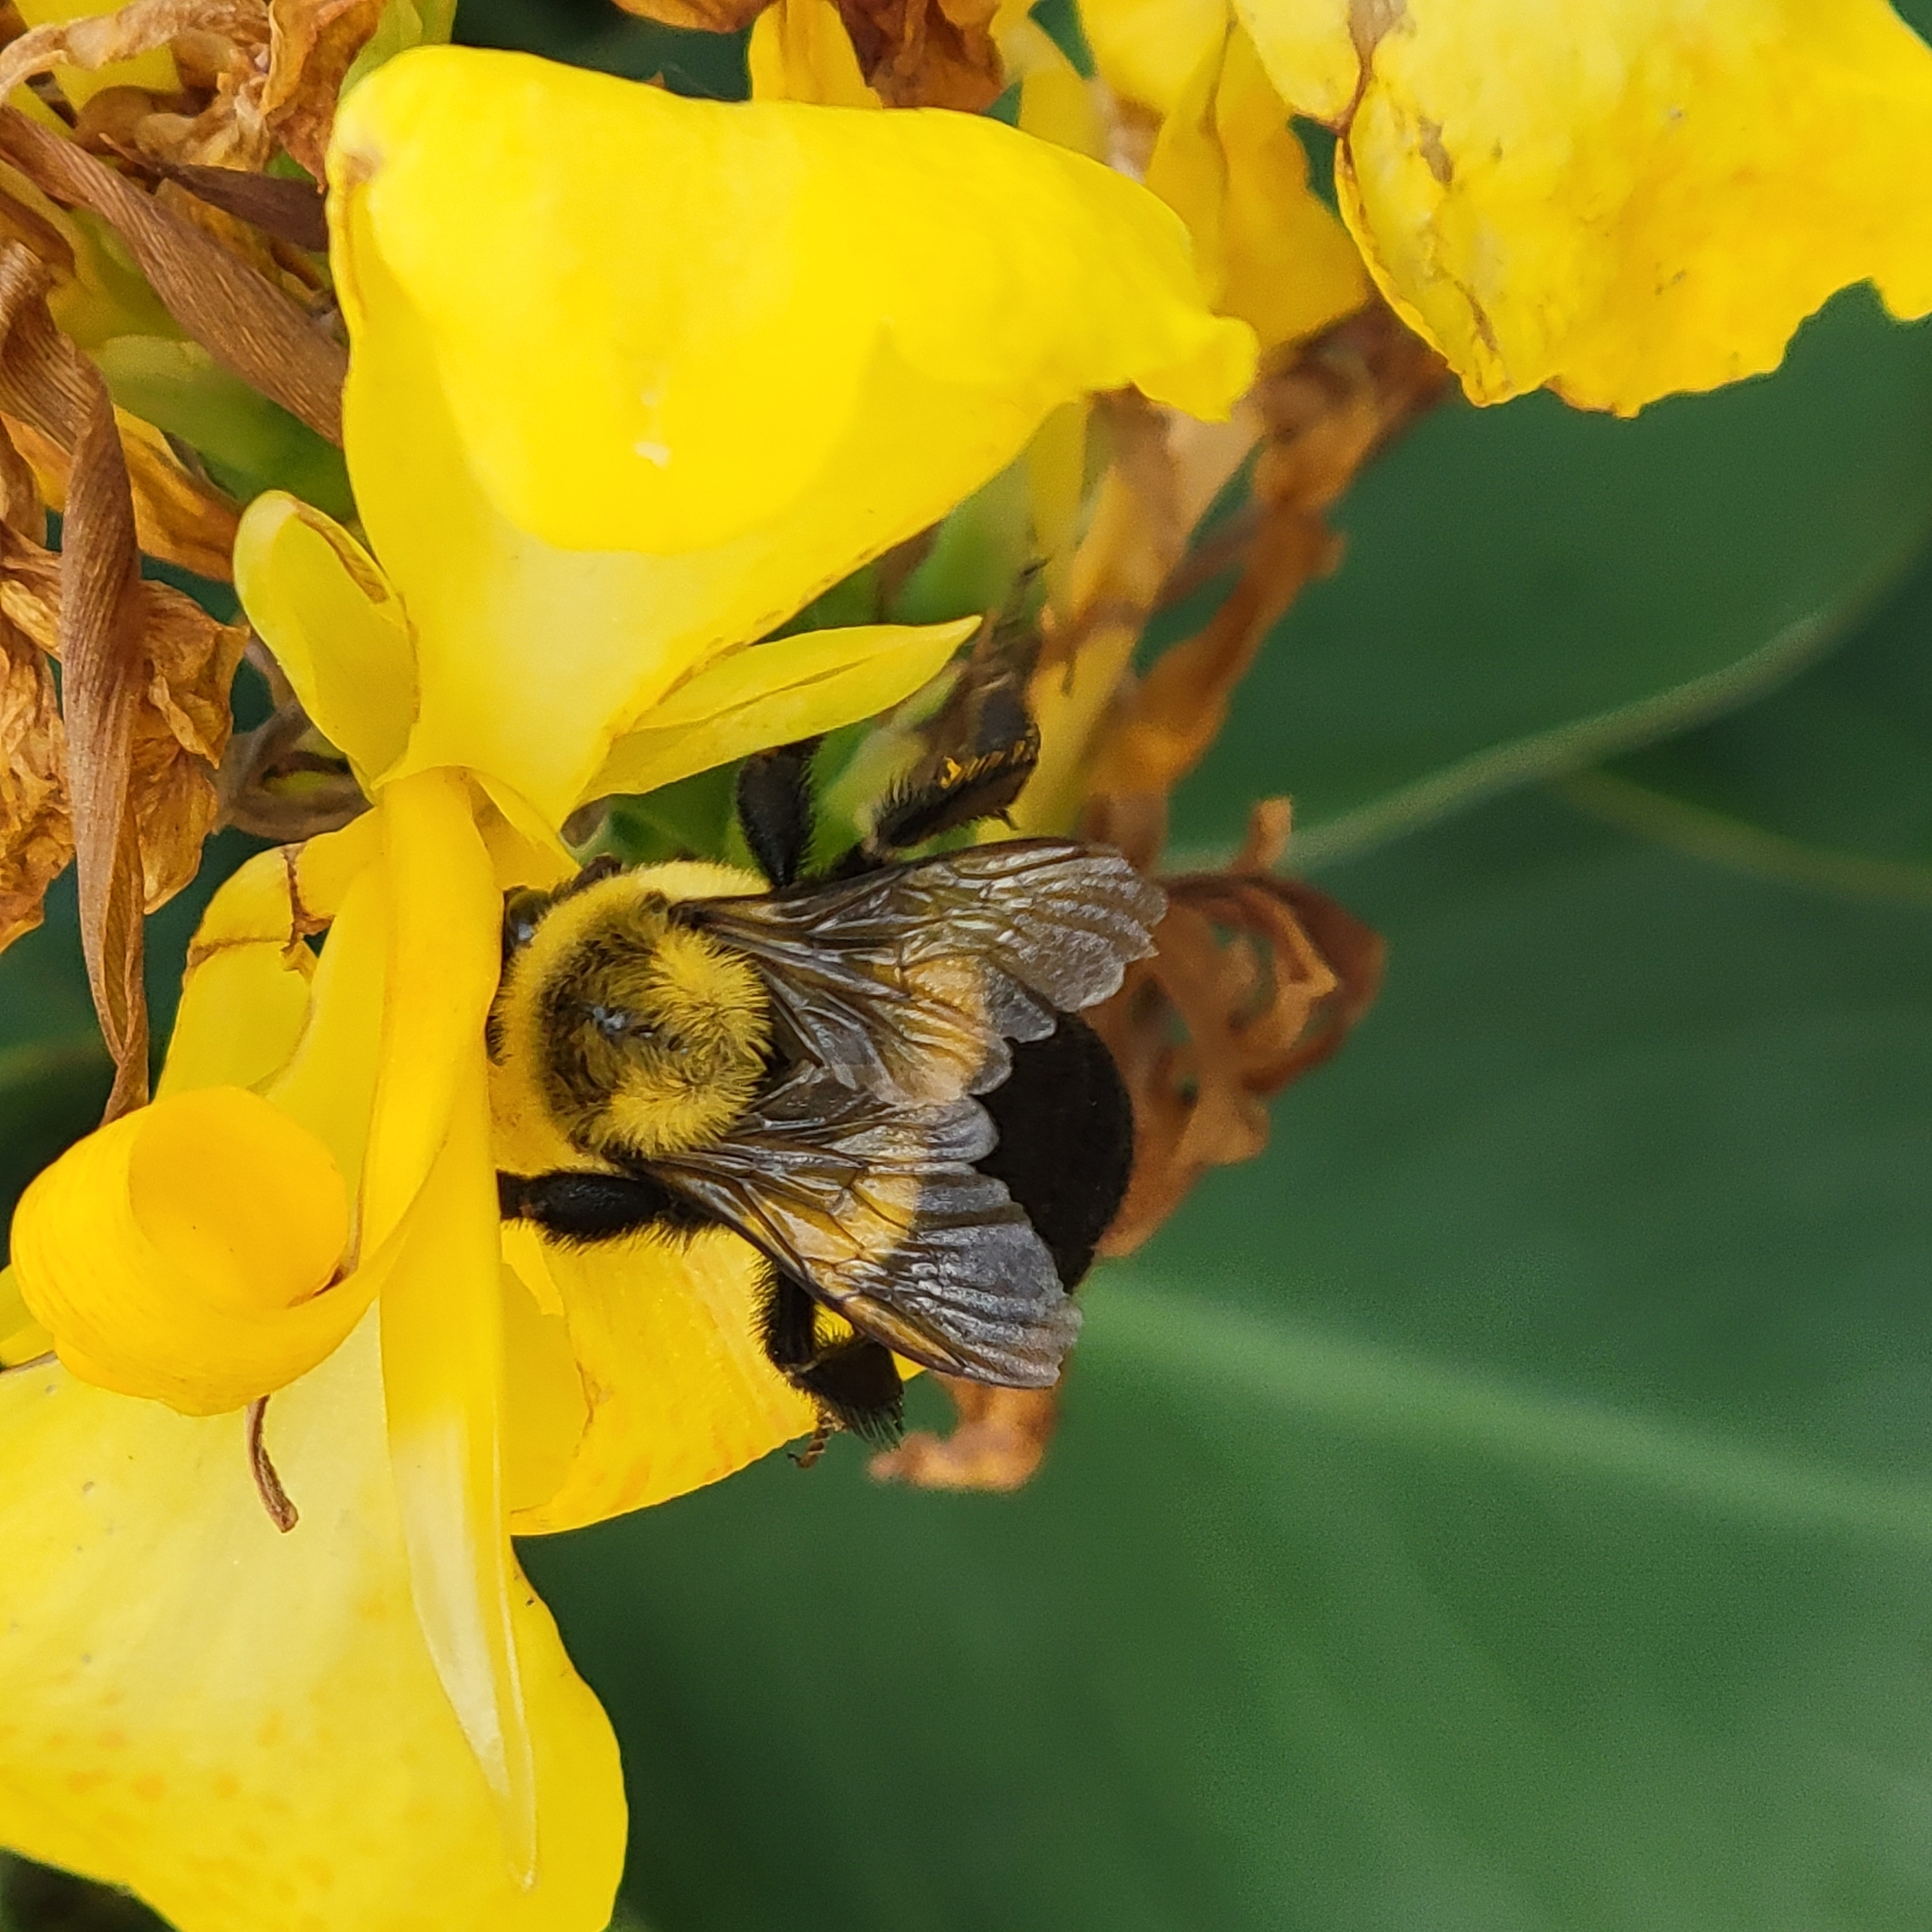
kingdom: Animalia
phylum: Arthropoda
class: Insecta
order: Hymenoptera
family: Apidae
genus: Bombus
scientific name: Bombus impatiens
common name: Common eastern bumble bee
